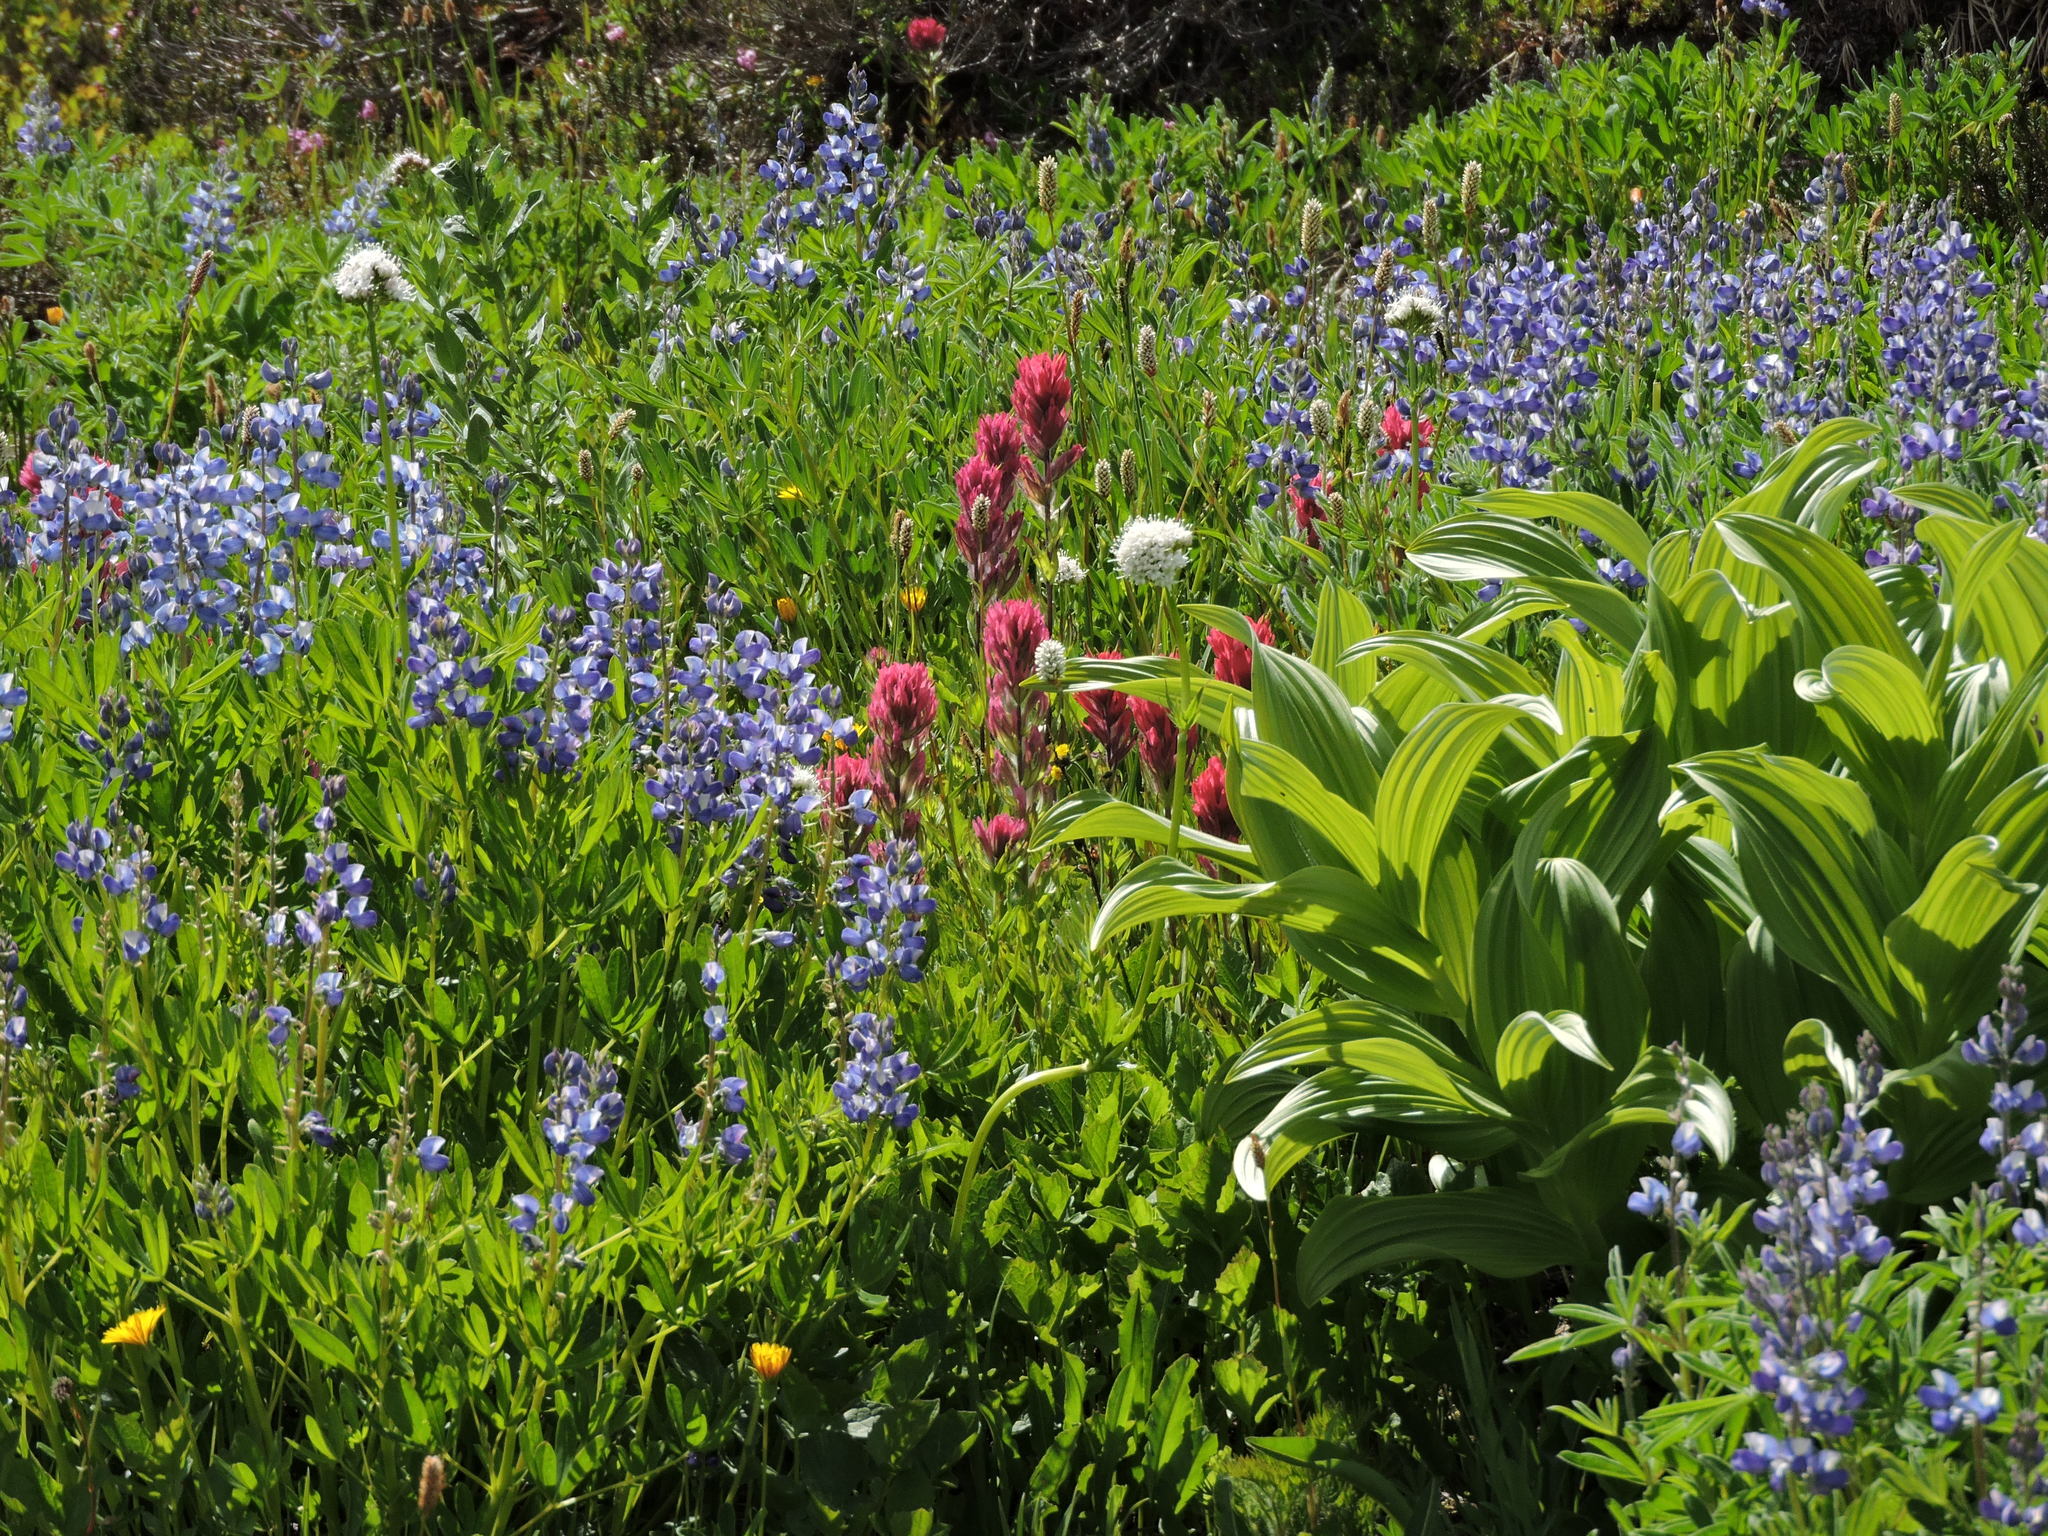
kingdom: Plantae
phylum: Tracheophyta
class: Liliopsida
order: Liliales
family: Melanthiaceae
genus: Veratrum
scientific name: Veratrum viride
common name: American false hellebore
